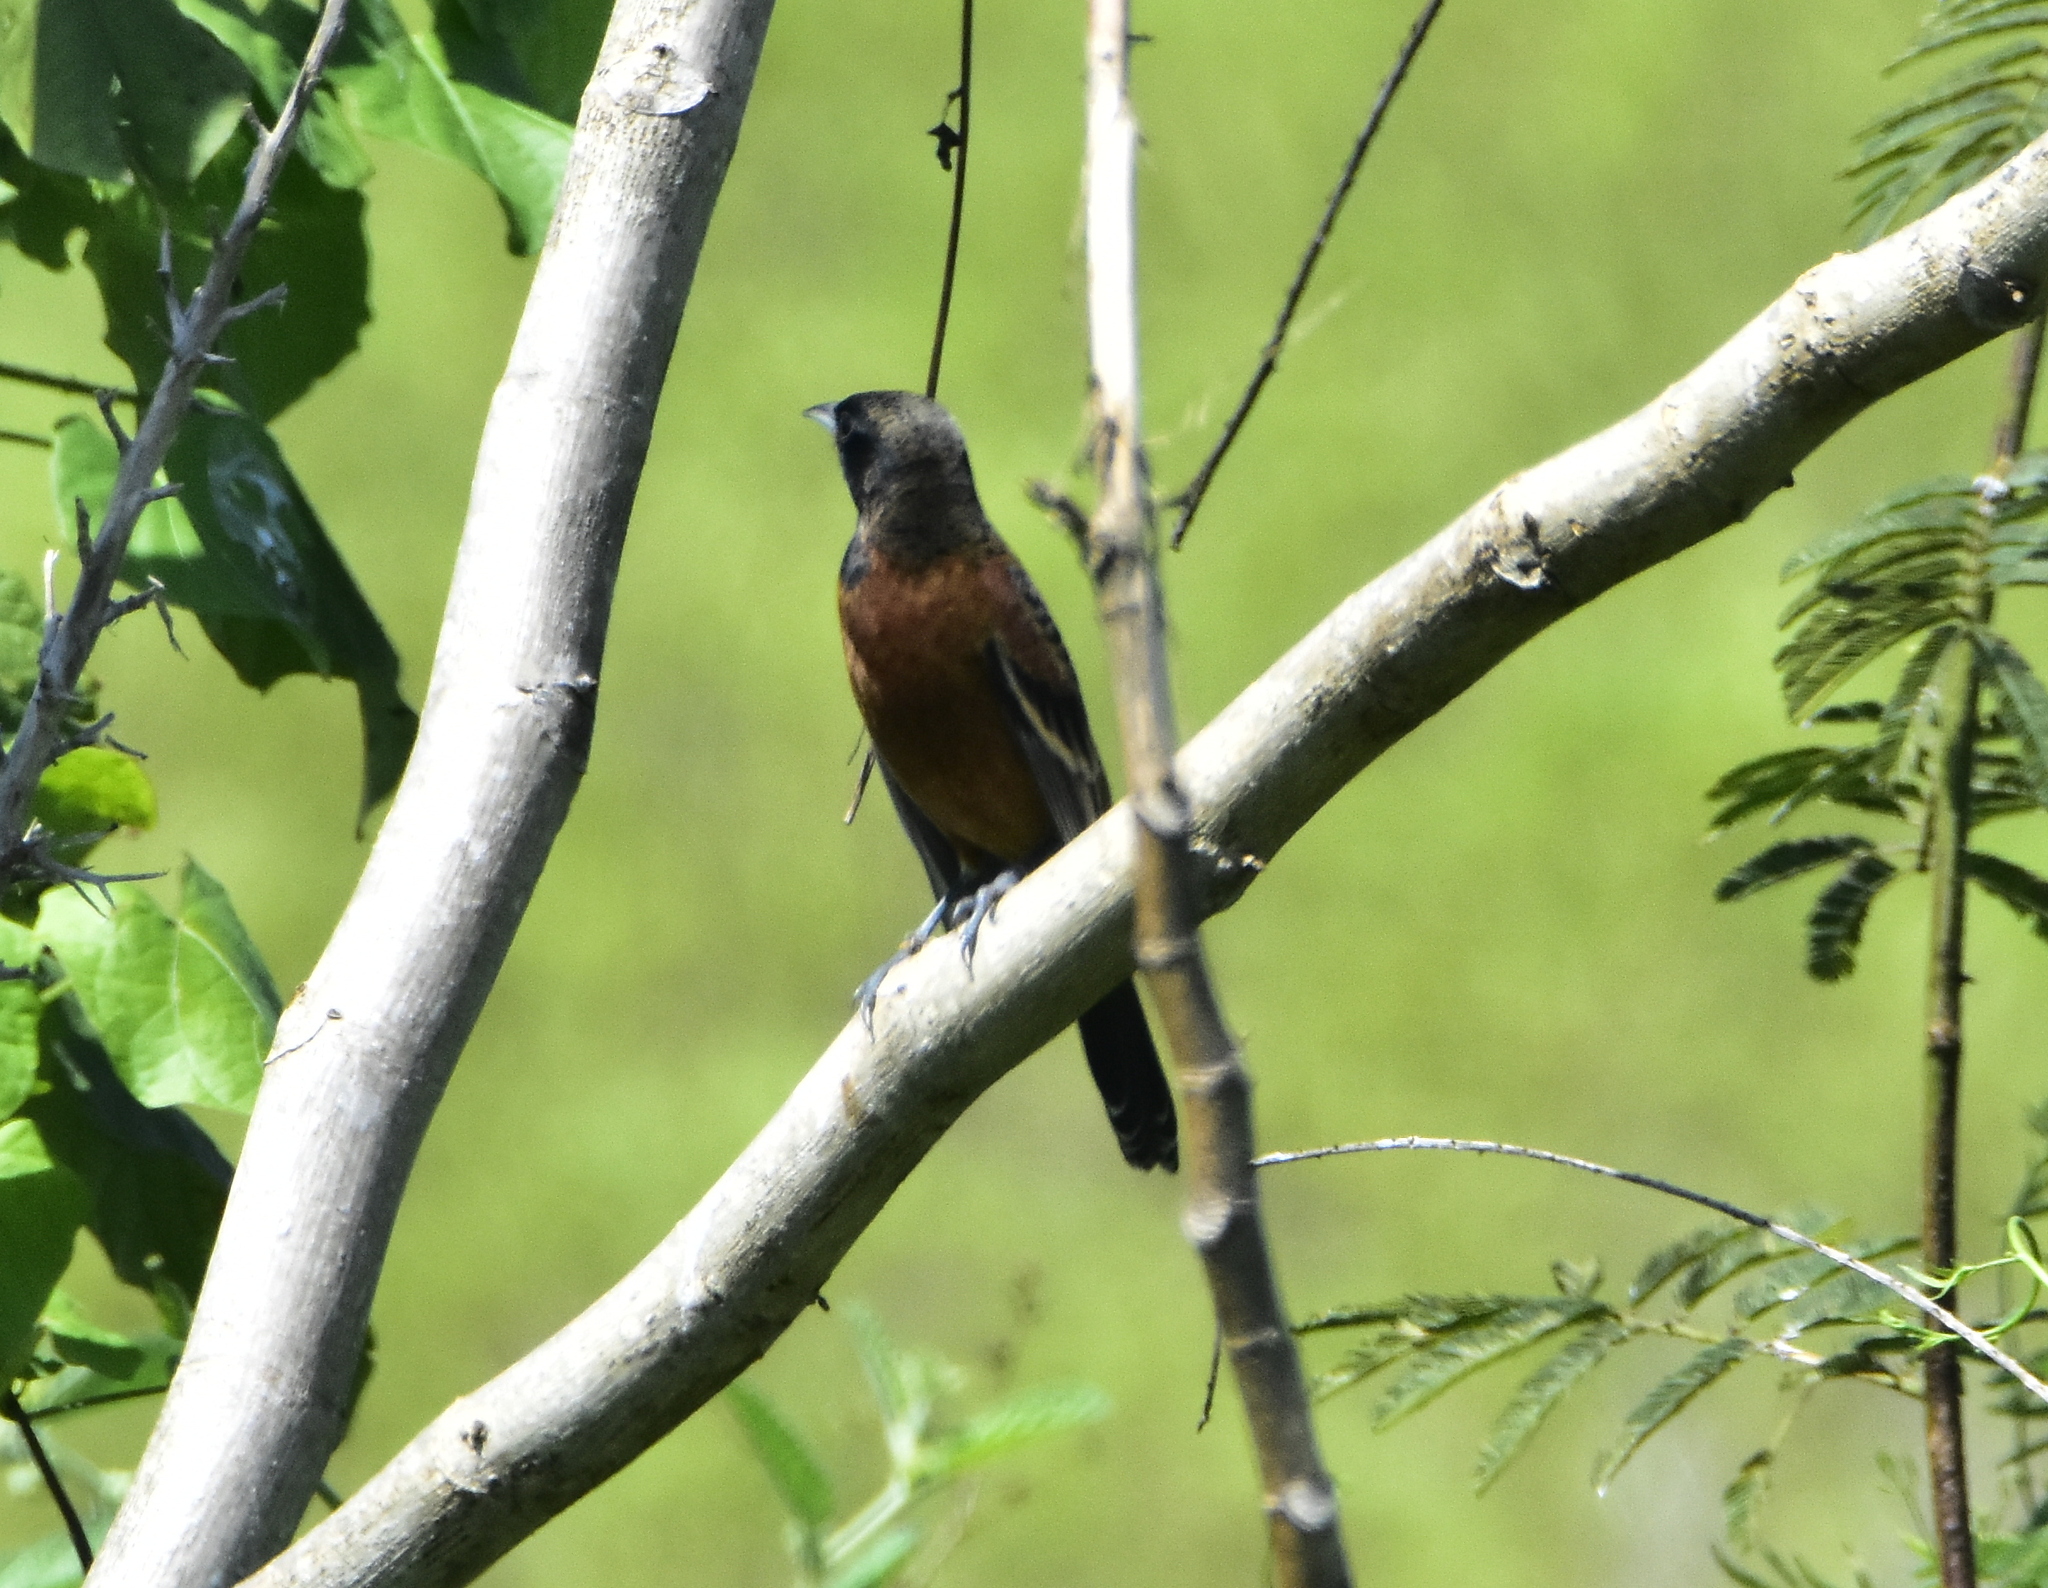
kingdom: Animalia
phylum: Chordata
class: Aves
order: Passeriformes
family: Icteridae
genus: Icterus
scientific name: Icterus spurius
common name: Orchard oriole
